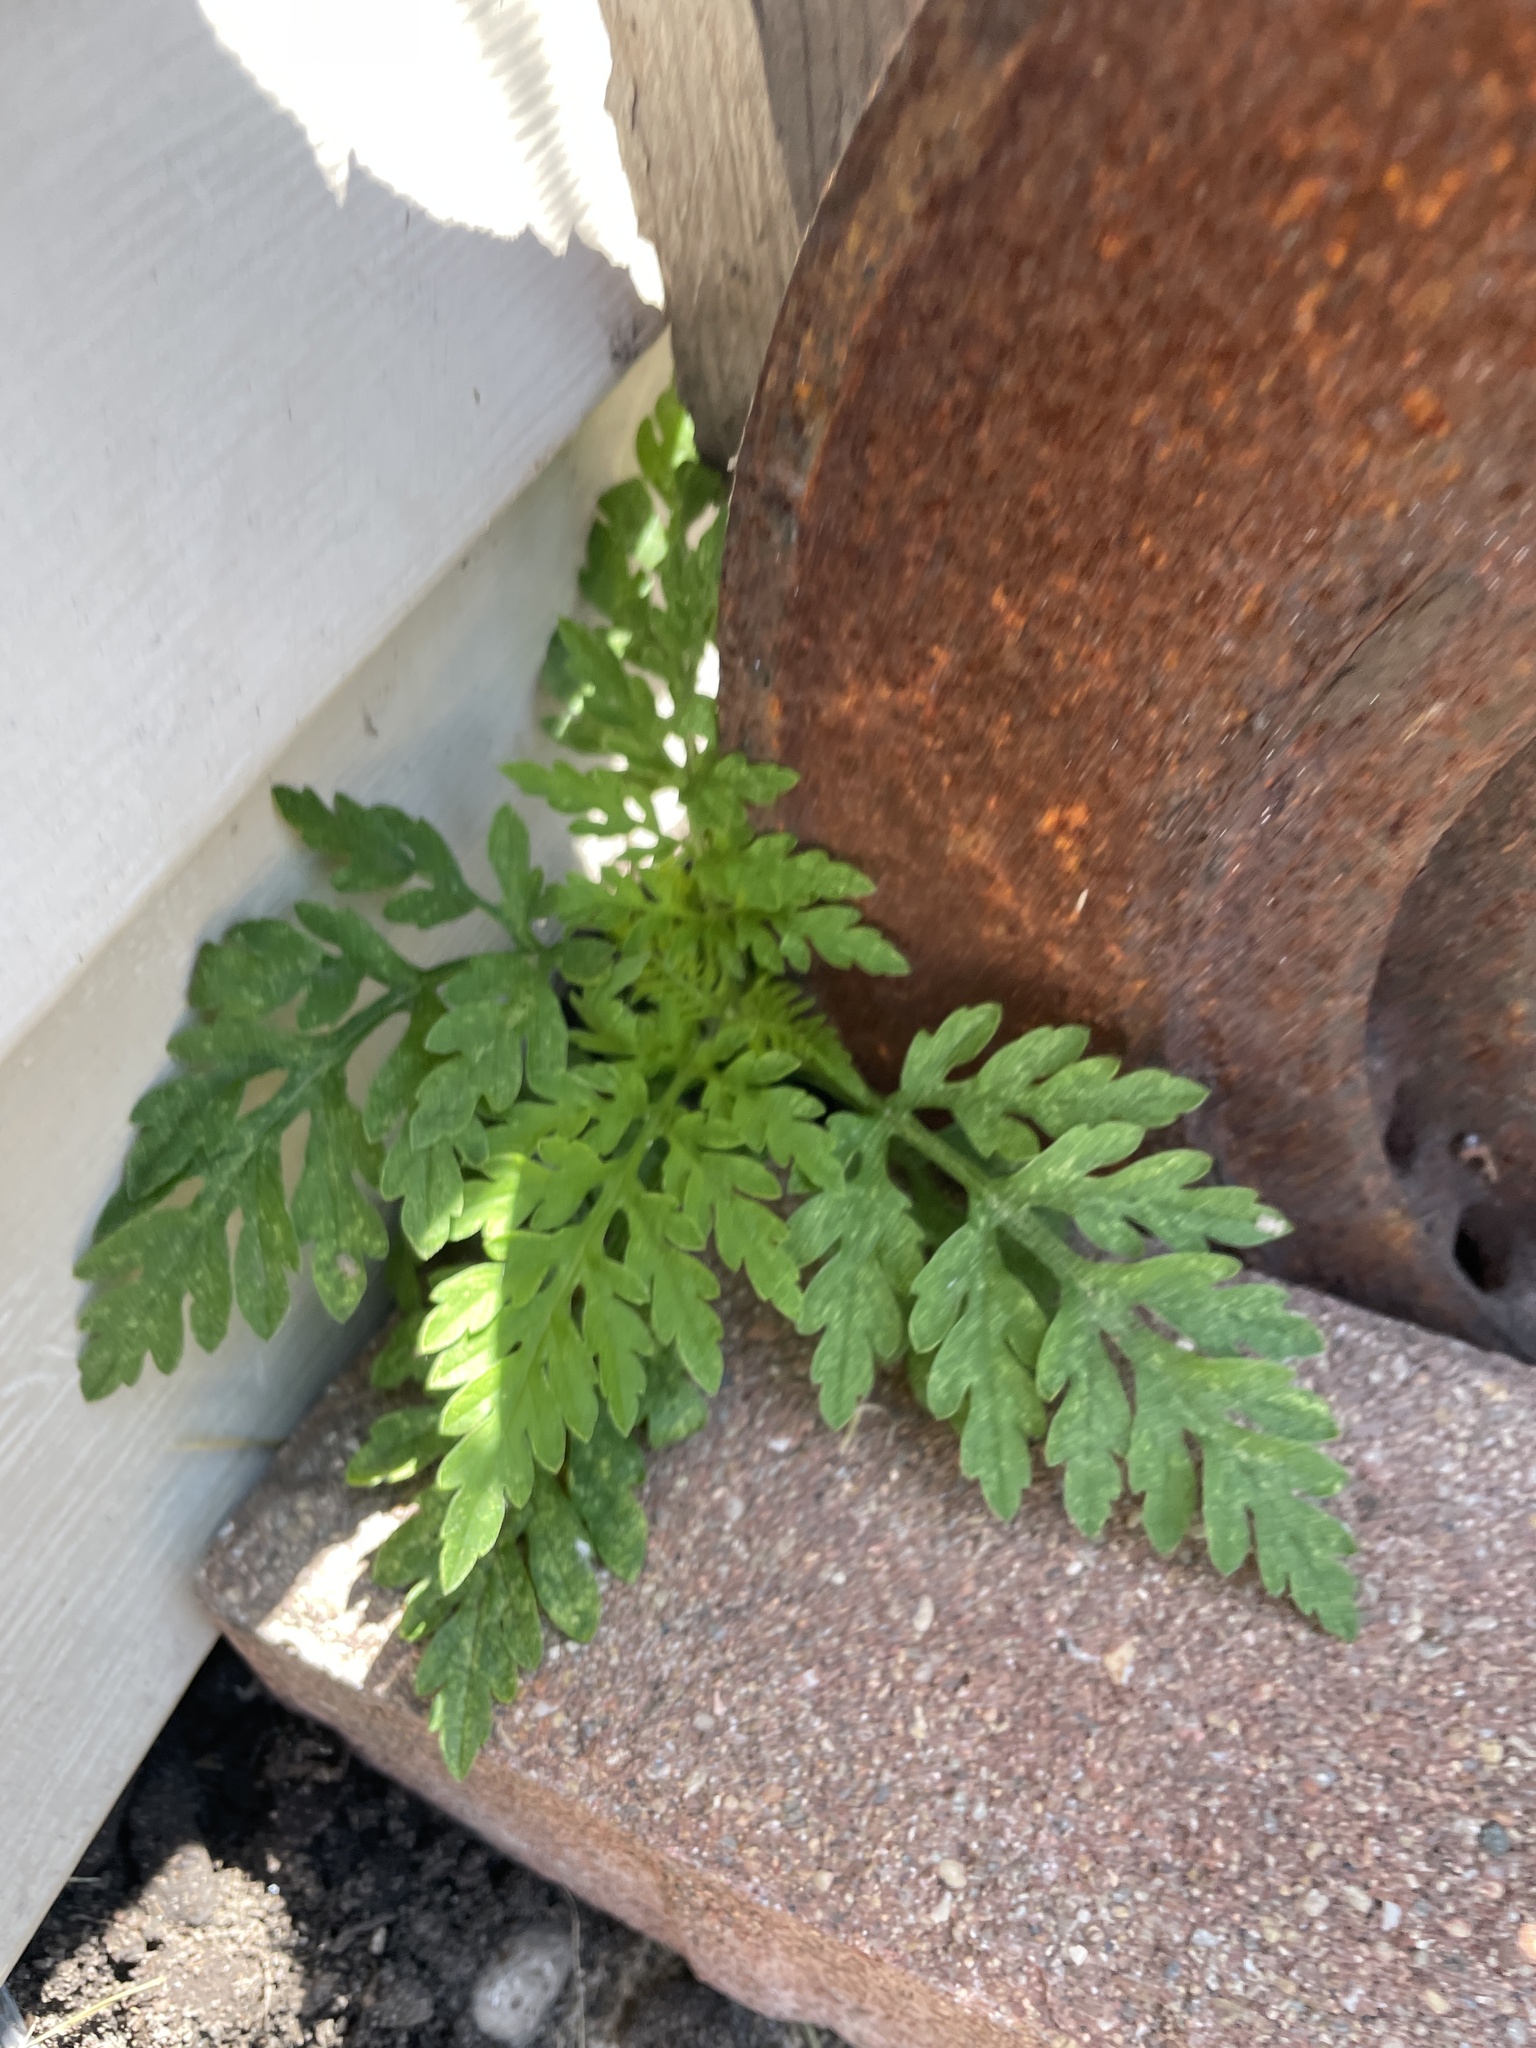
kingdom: Plantae
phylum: Tracheophyta
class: Magnoliopsida
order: Asterales
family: Asteraceae
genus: Ambrosia
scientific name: Ambrosia artemisiifolia
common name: Annual ragweed
